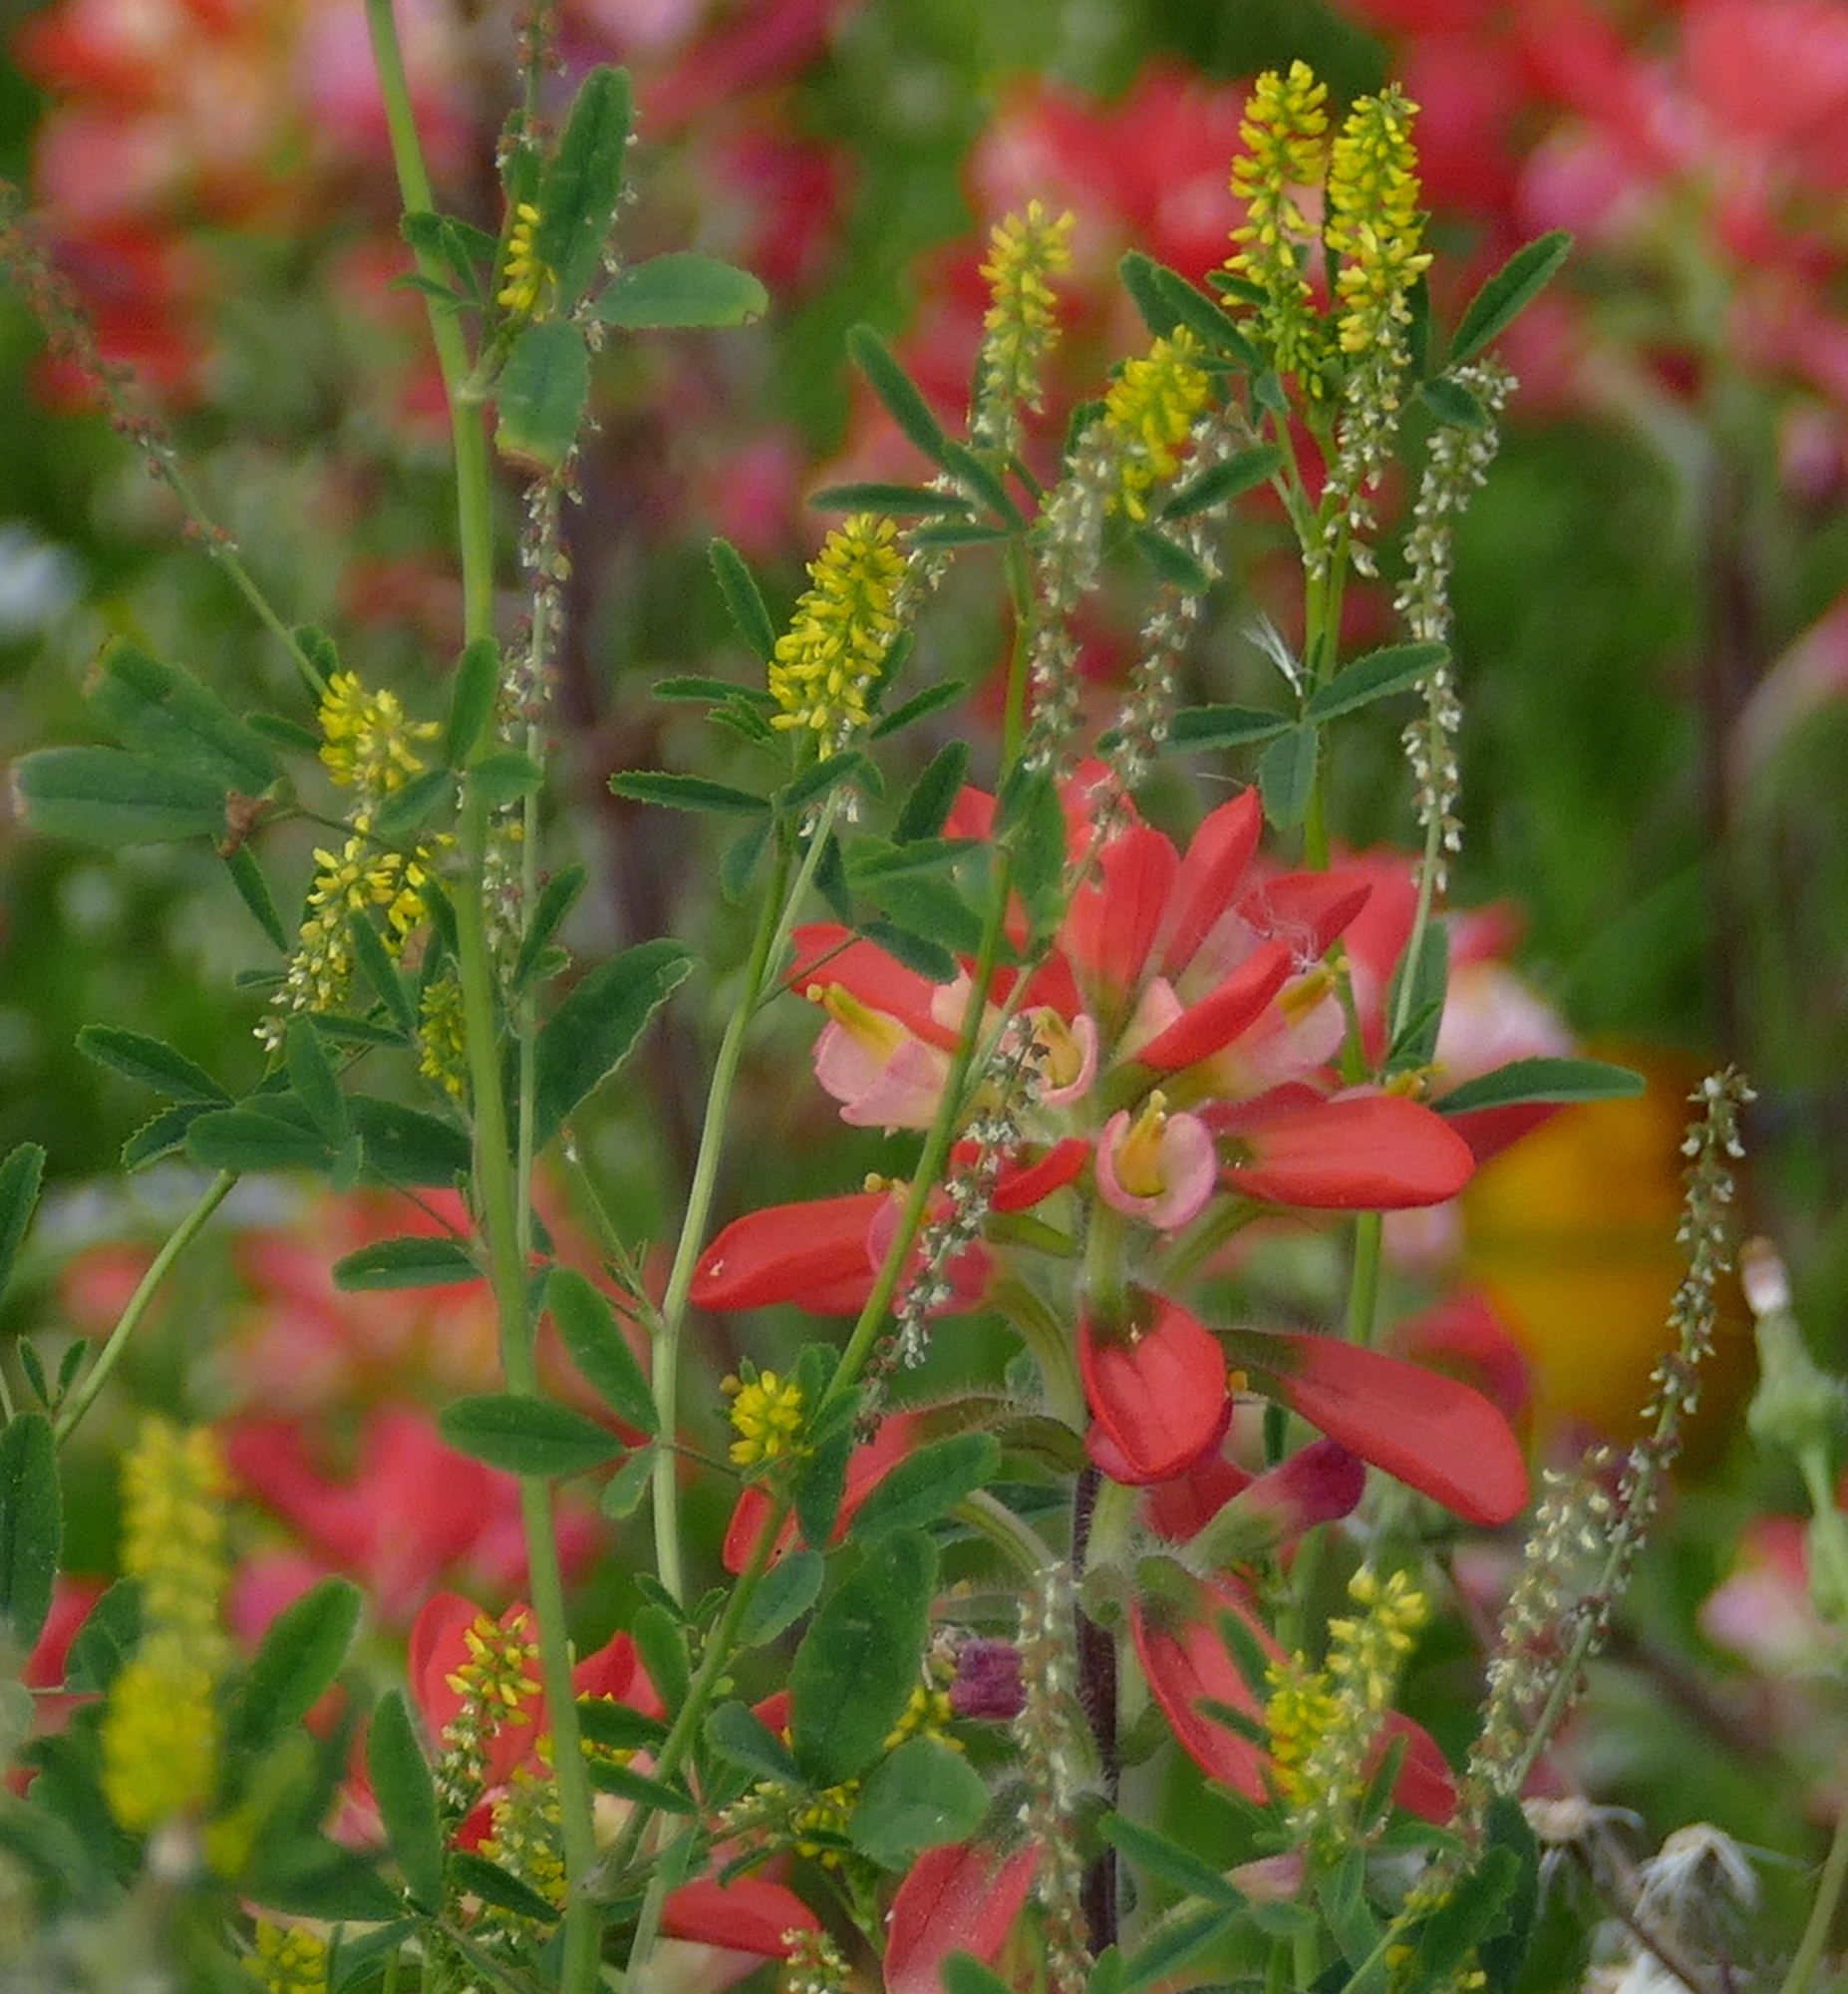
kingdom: Plantae
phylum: Tracheophyta
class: Magnoliopsida
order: Lamiales
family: Orobanchaceae
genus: Castilleja
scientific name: Castilleja indivisa
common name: Texas paintbrush
